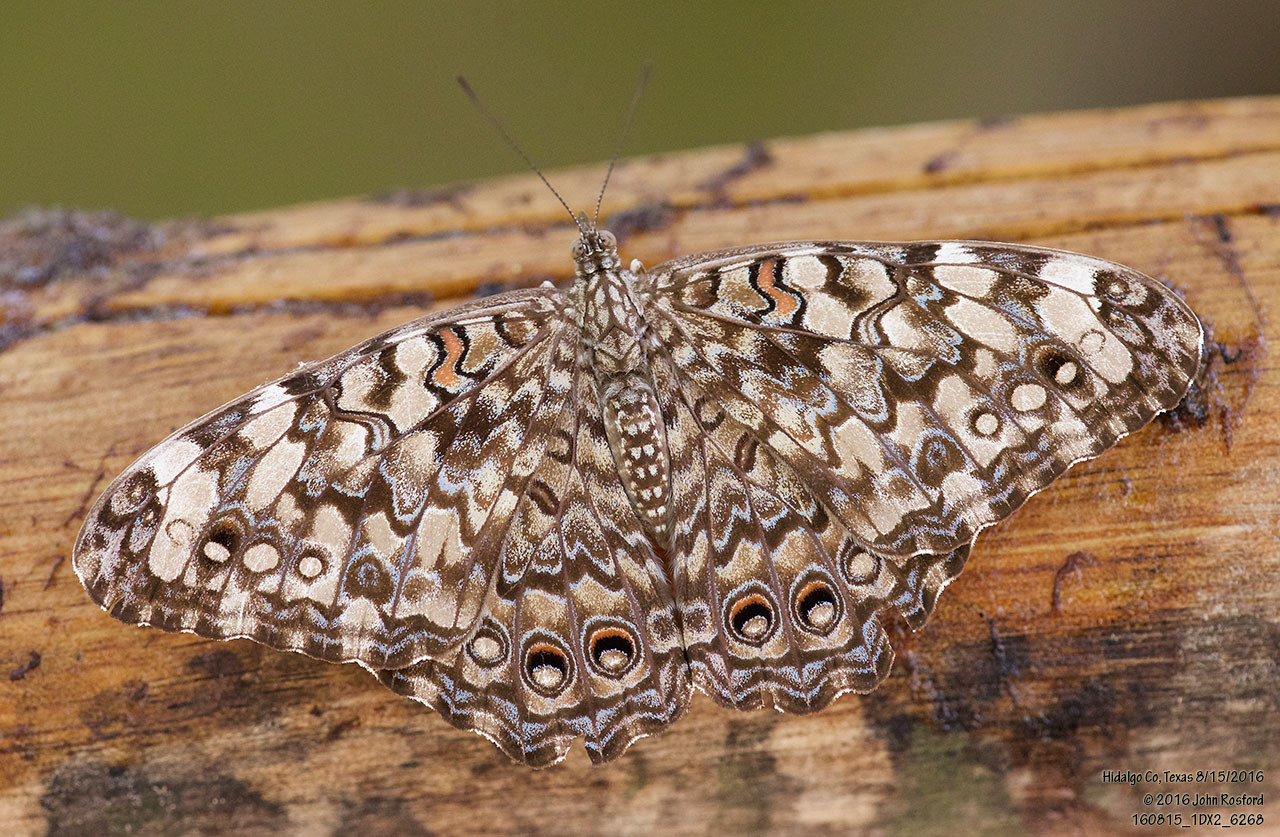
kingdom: Animalia
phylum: Arthropoda
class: Insecta
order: Lepidoptera
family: Nymphalidae
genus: Hamadryas
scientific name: Hamadryas februa
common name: Gray cracker
